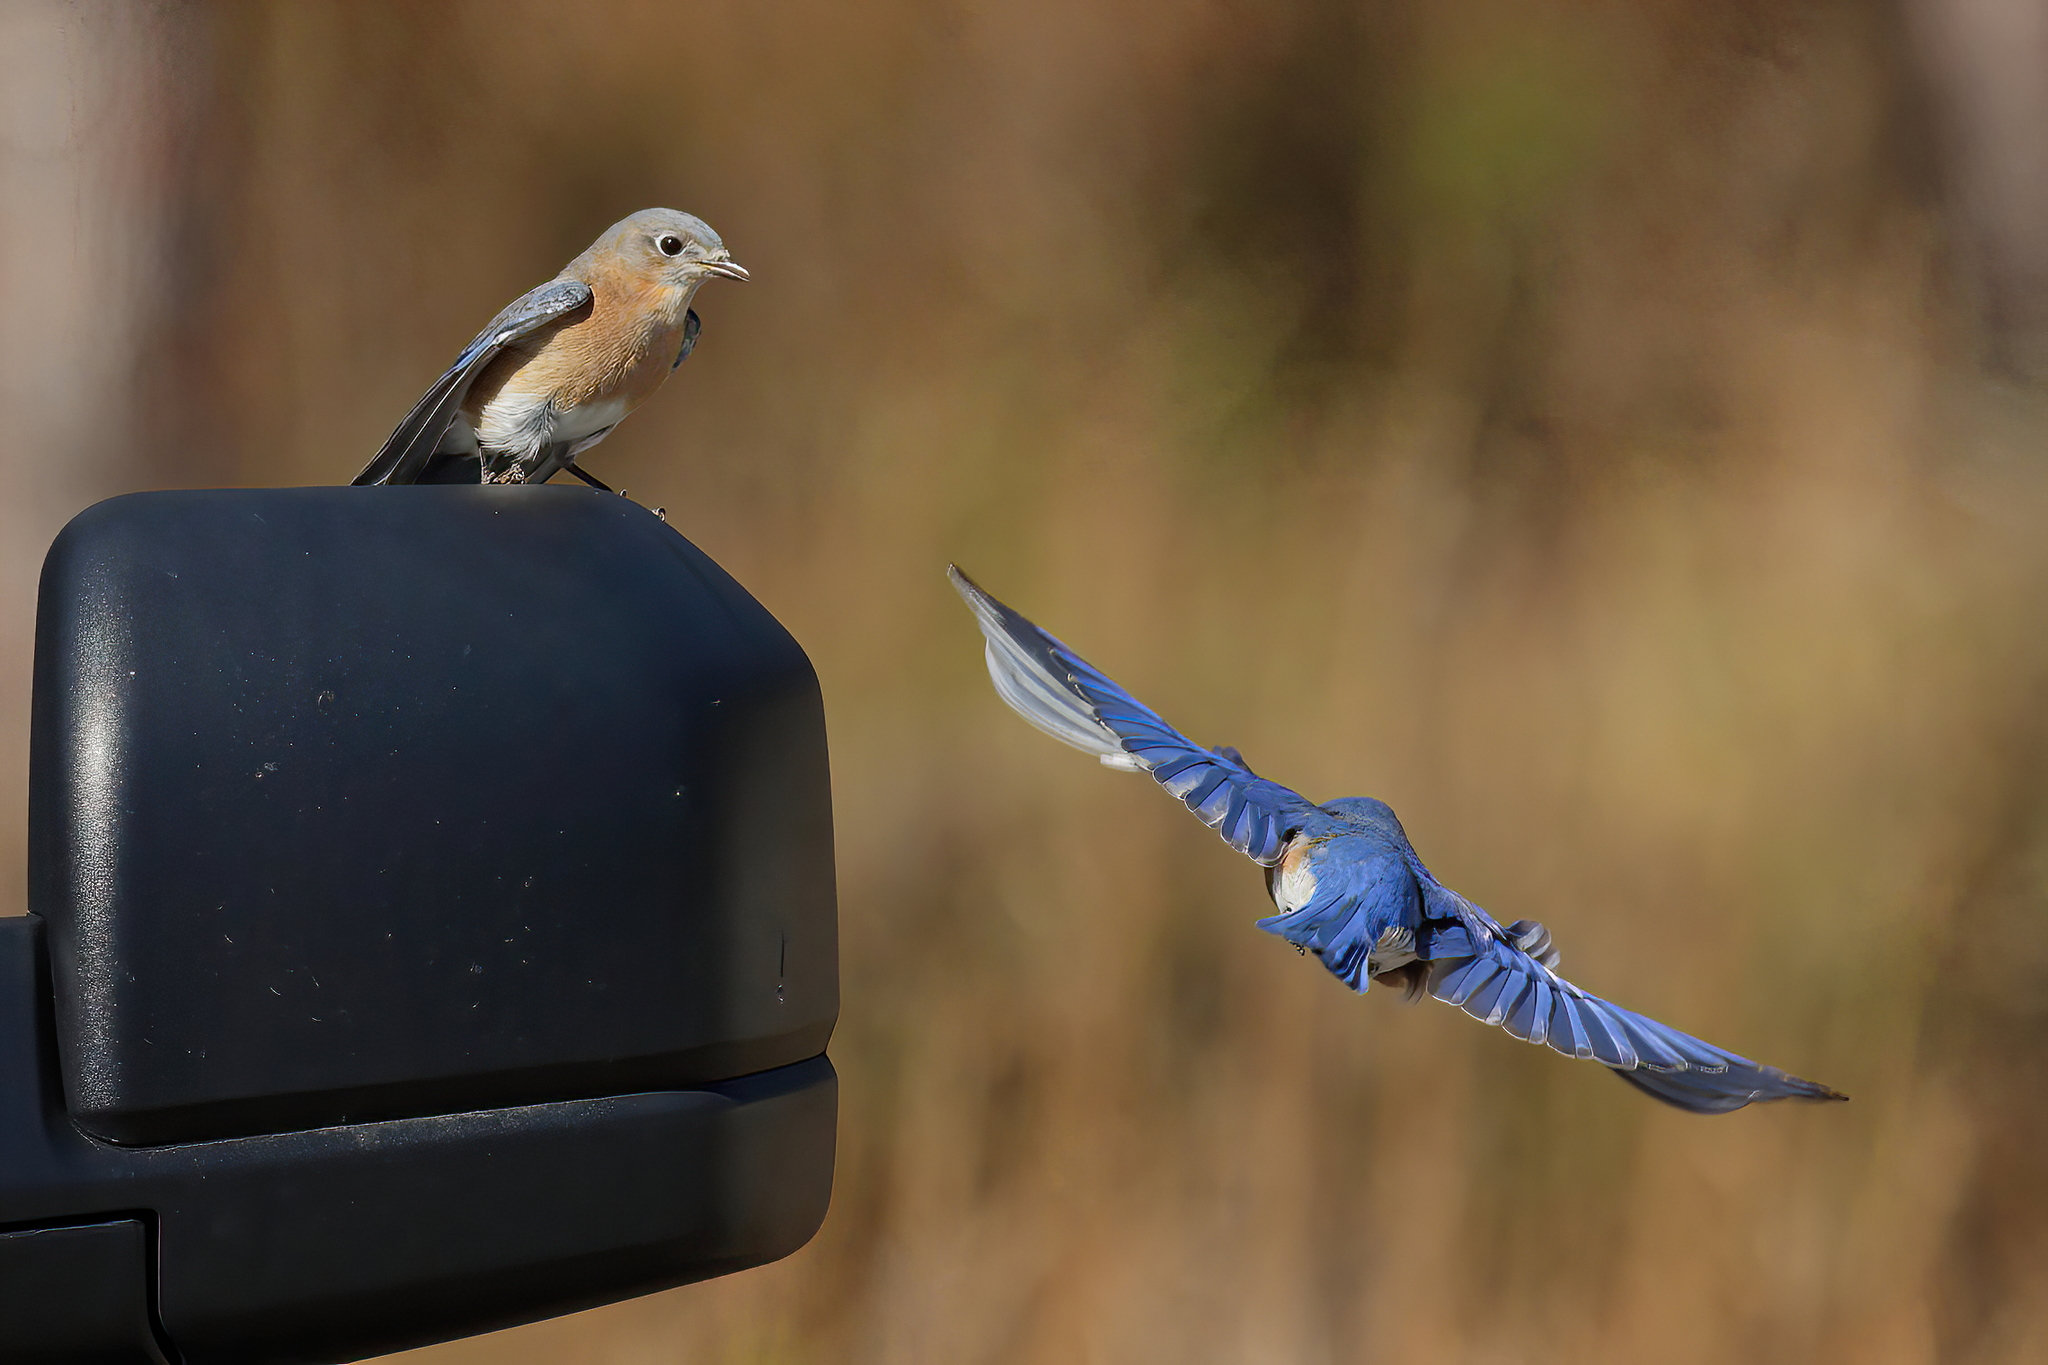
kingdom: Animalia
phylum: Chordata
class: Aves
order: Passeriformes
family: Turdidae
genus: Sialia
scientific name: Sialia sialis
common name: Eastern bluebird
